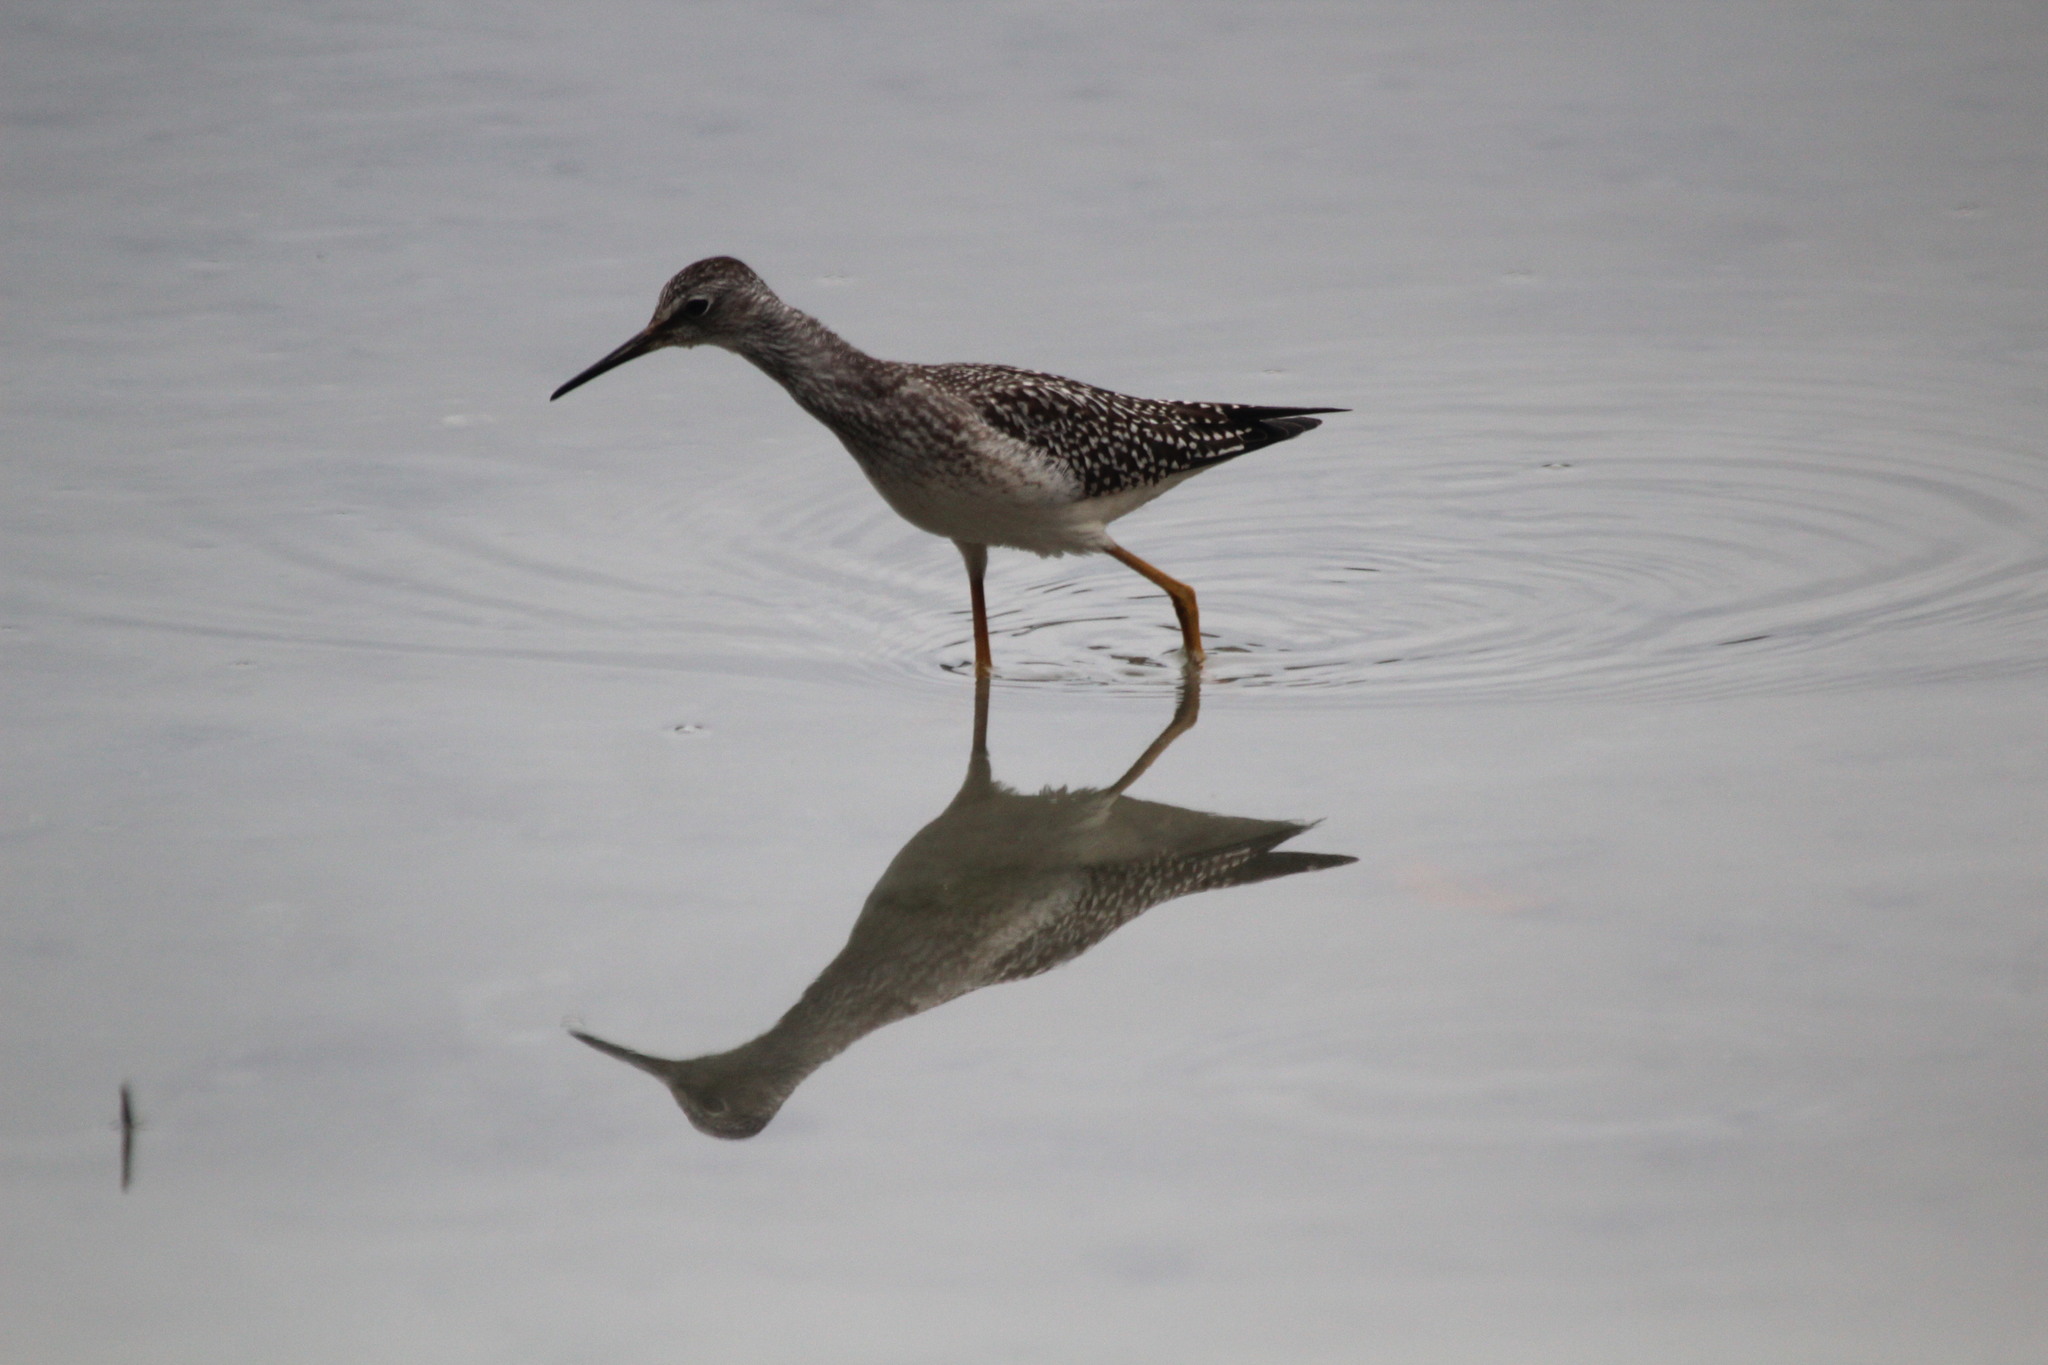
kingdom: Animalia
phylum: Chordata
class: Aves
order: Charadriiformes
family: Scolopacidae
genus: Tringa
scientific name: Tringa flavipes
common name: Lesser yellowlegs
